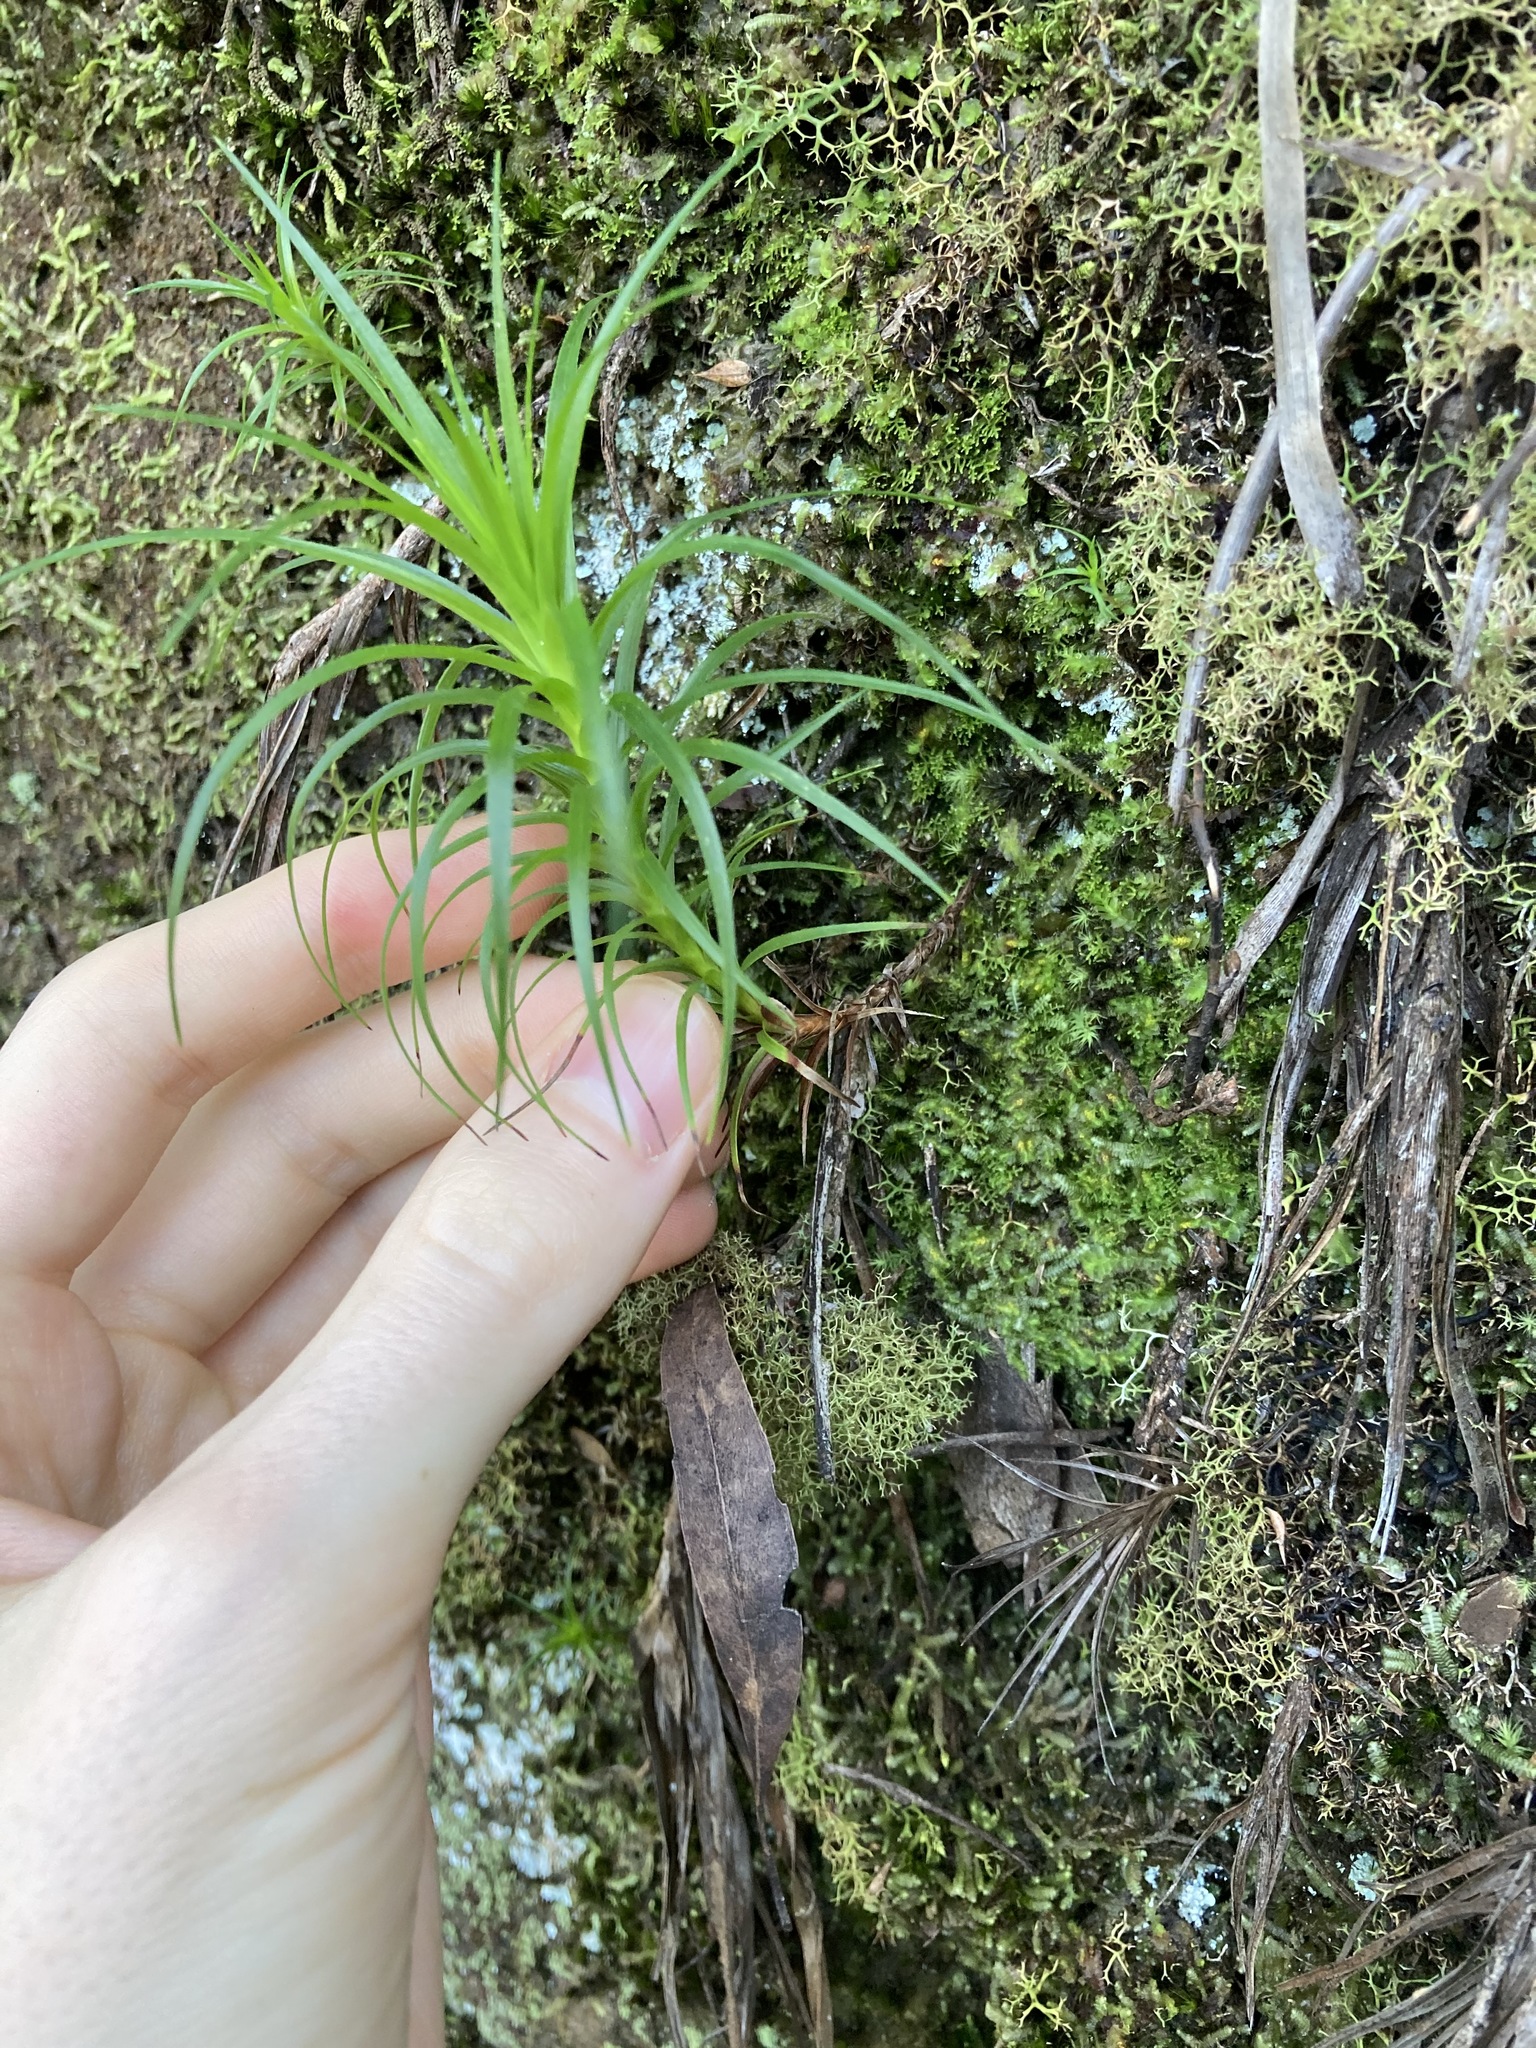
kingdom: Plantae
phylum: Tracheophyta
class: Magnoliopsida
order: Ericales
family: Ericaceae
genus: Dracophyllum
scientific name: Dracophyllum secundum
